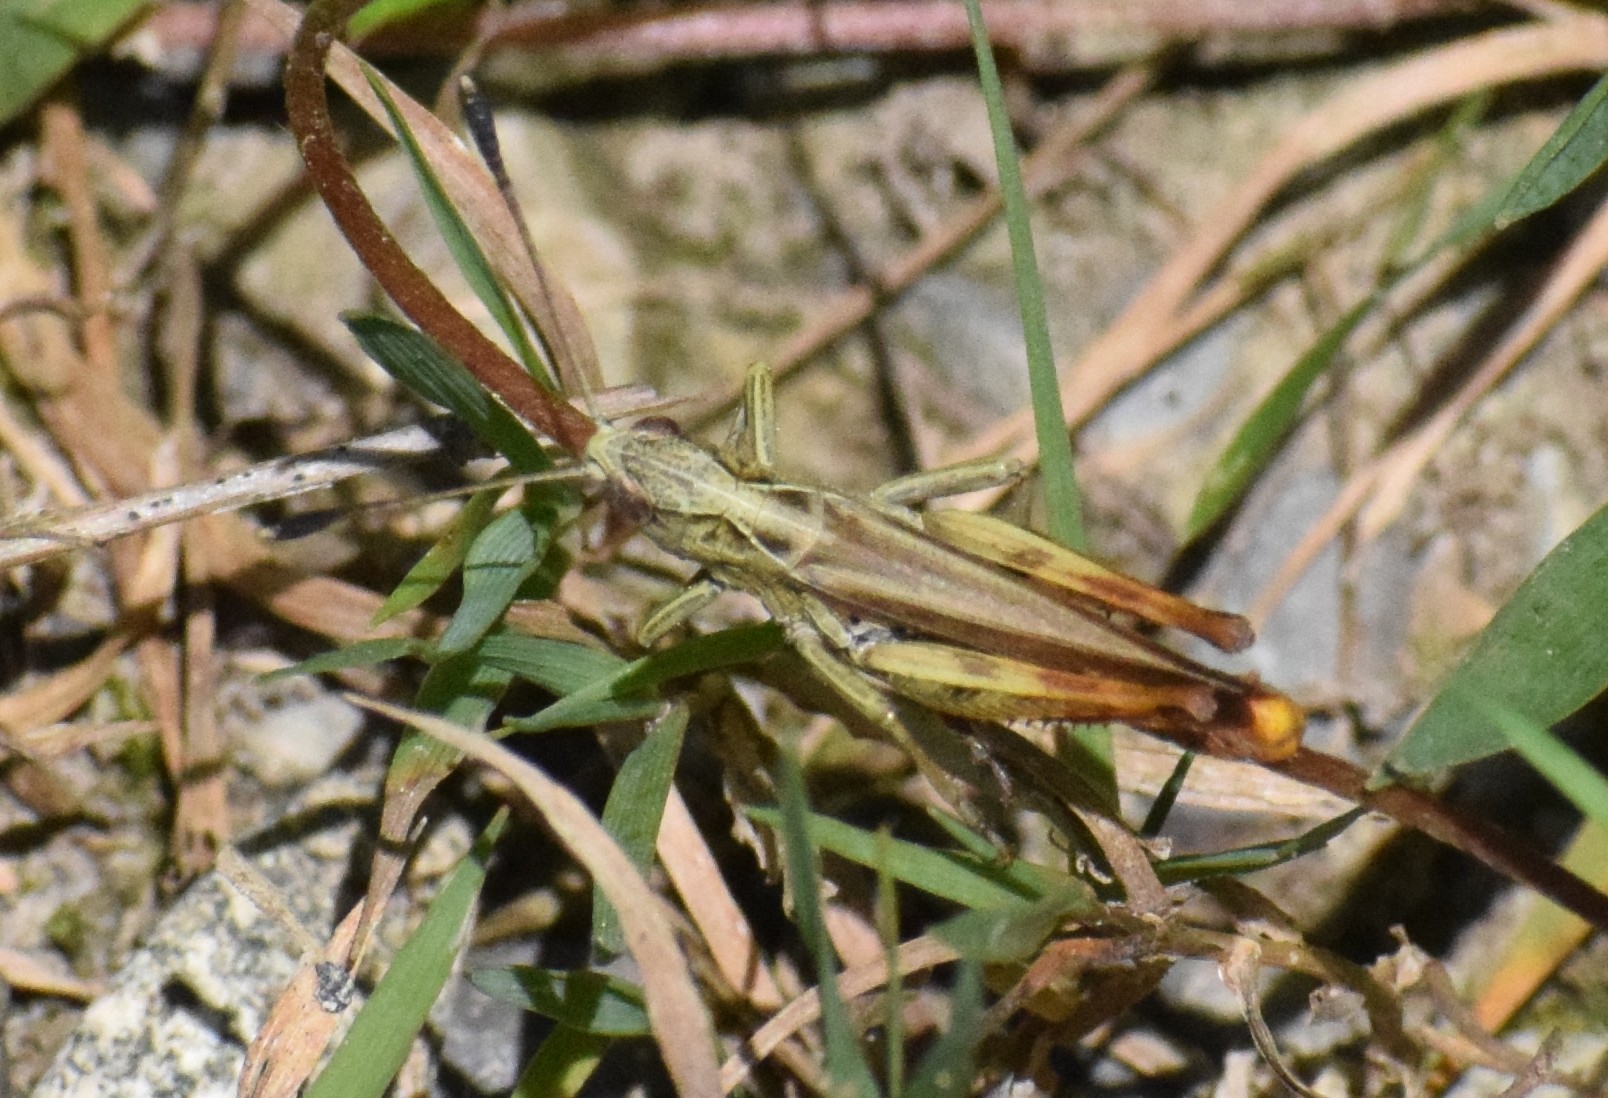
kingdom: Animalia
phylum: Arthropoda
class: Insecta
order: Orthoptera
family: Acrididae
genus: Gomphocerippus
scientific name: Gomphocerippus rufus
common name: Rufous grasshopper
